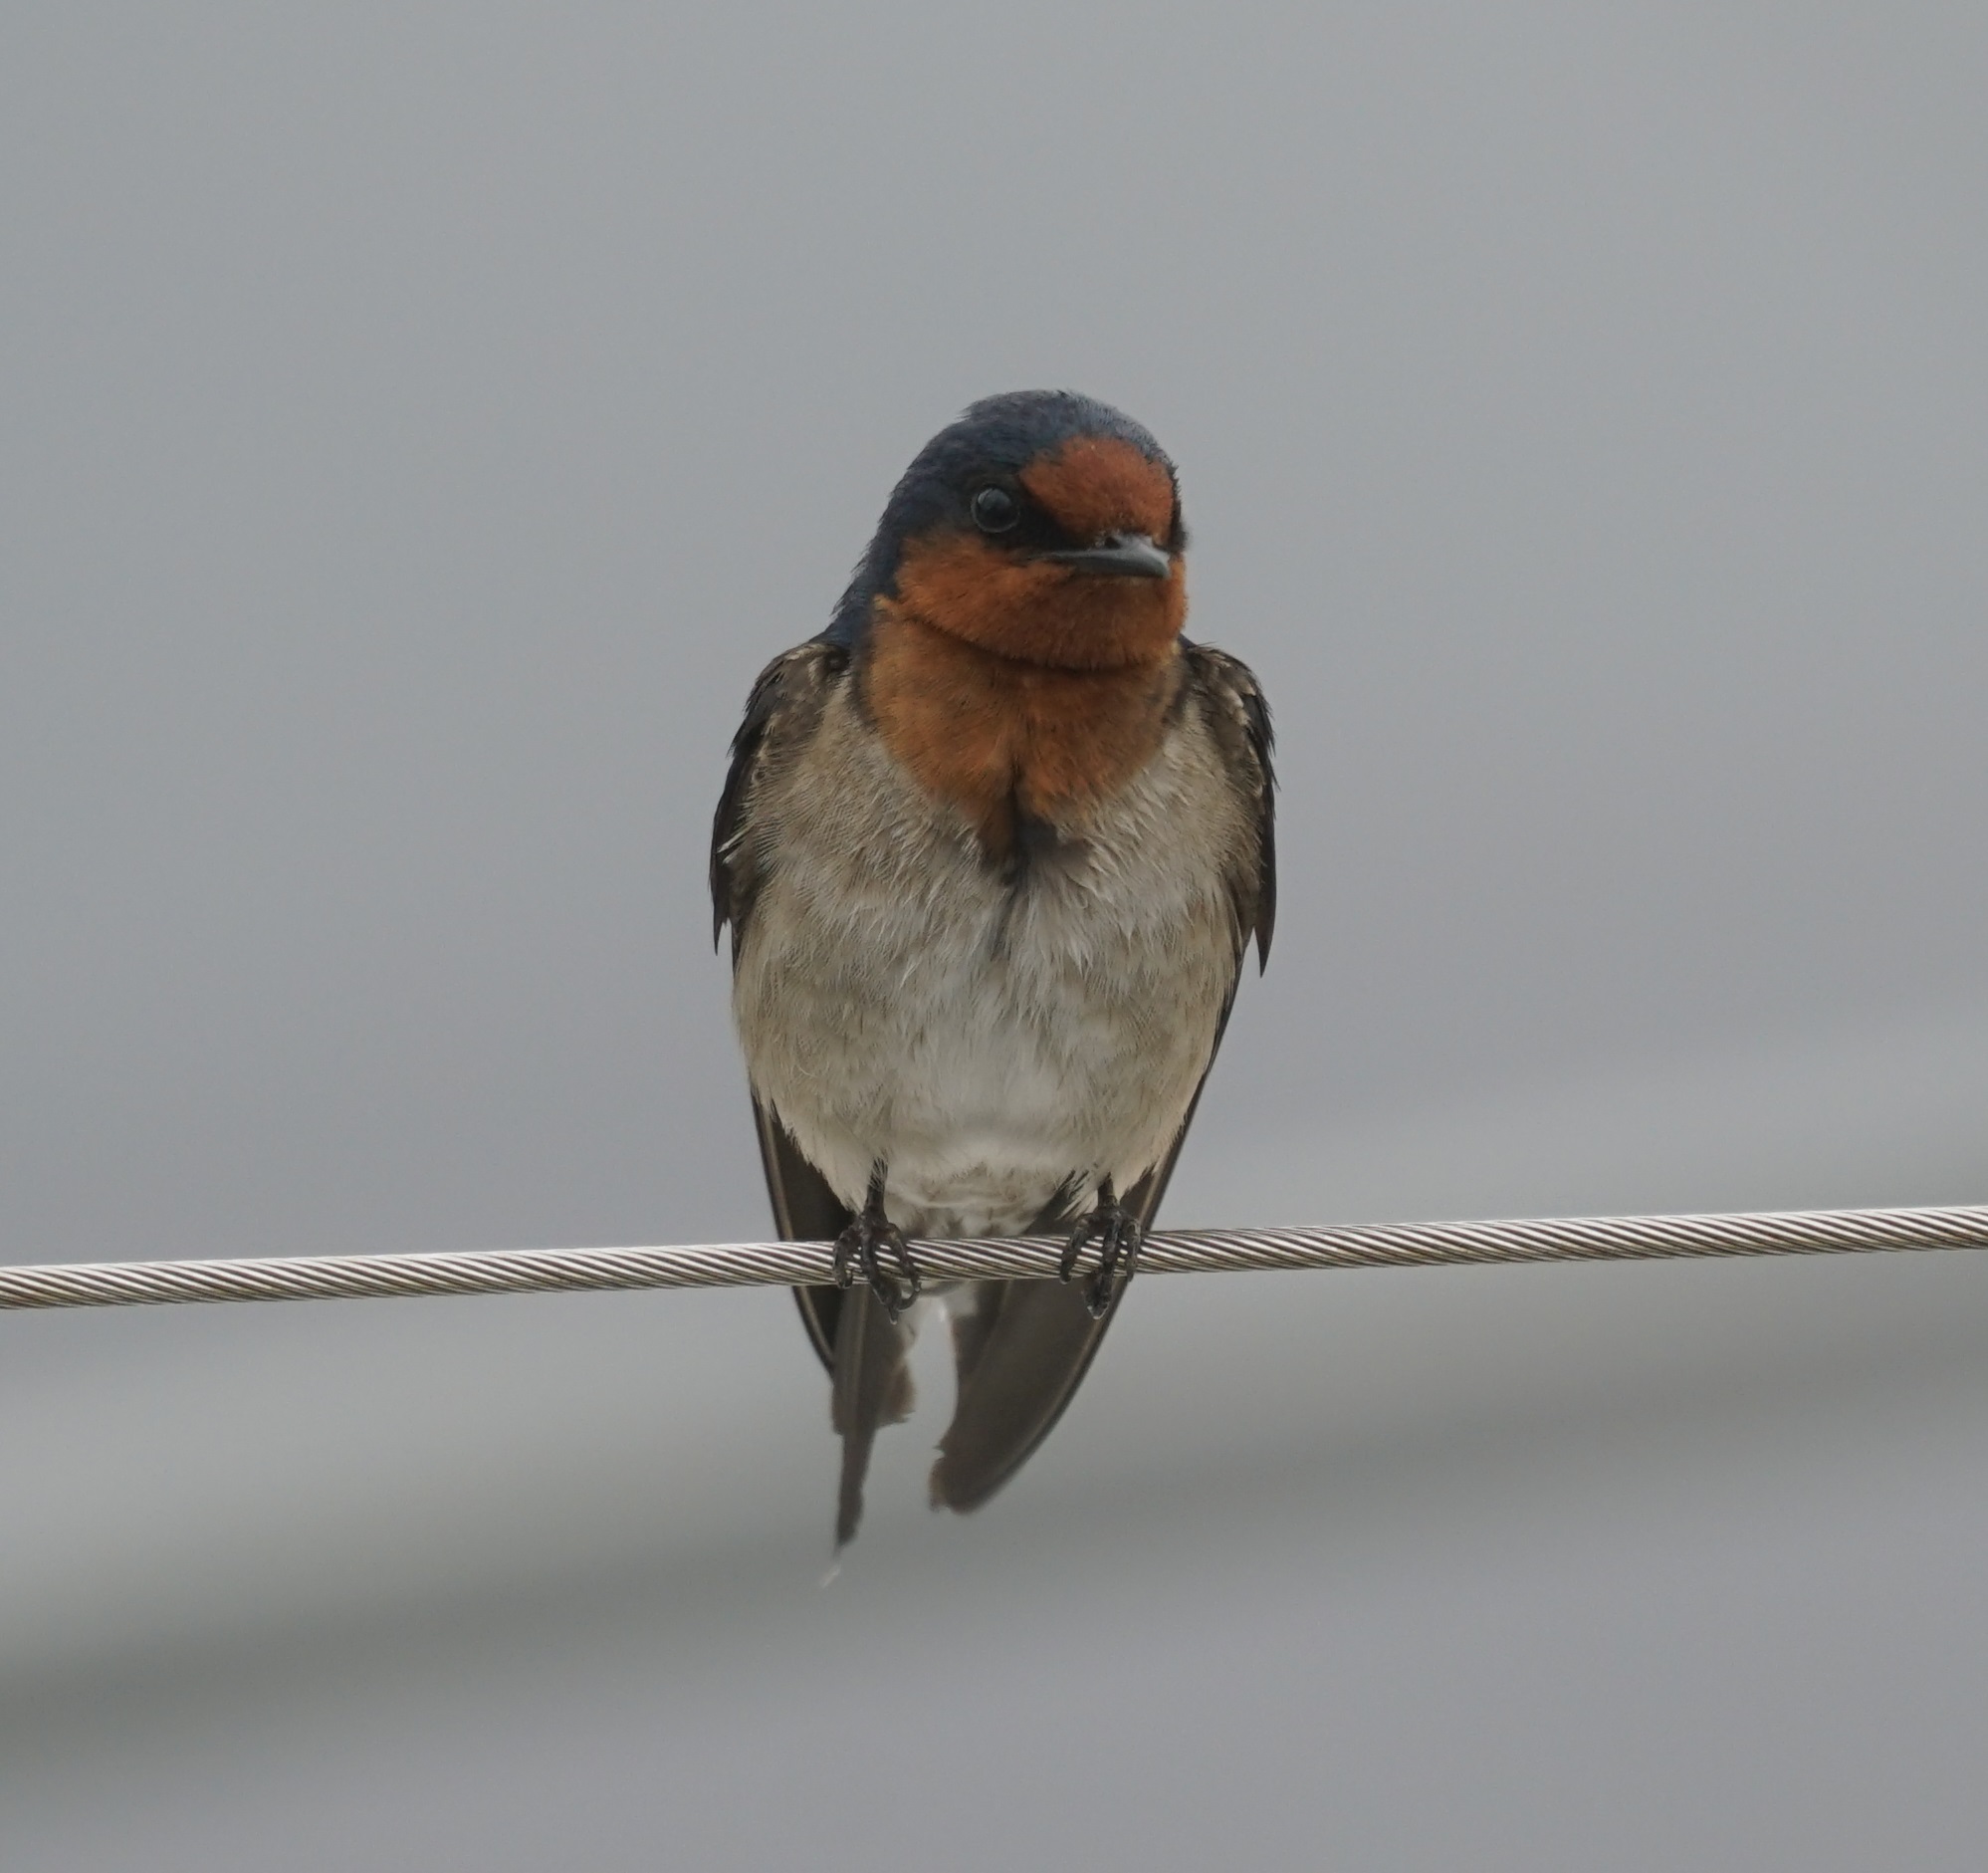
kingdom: Animalia
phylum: Chordata
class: Aves
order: Passeriformes
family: Hirundinidae
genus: Hirundo
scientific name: Hirundo neoxena
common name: Welcome swallow
